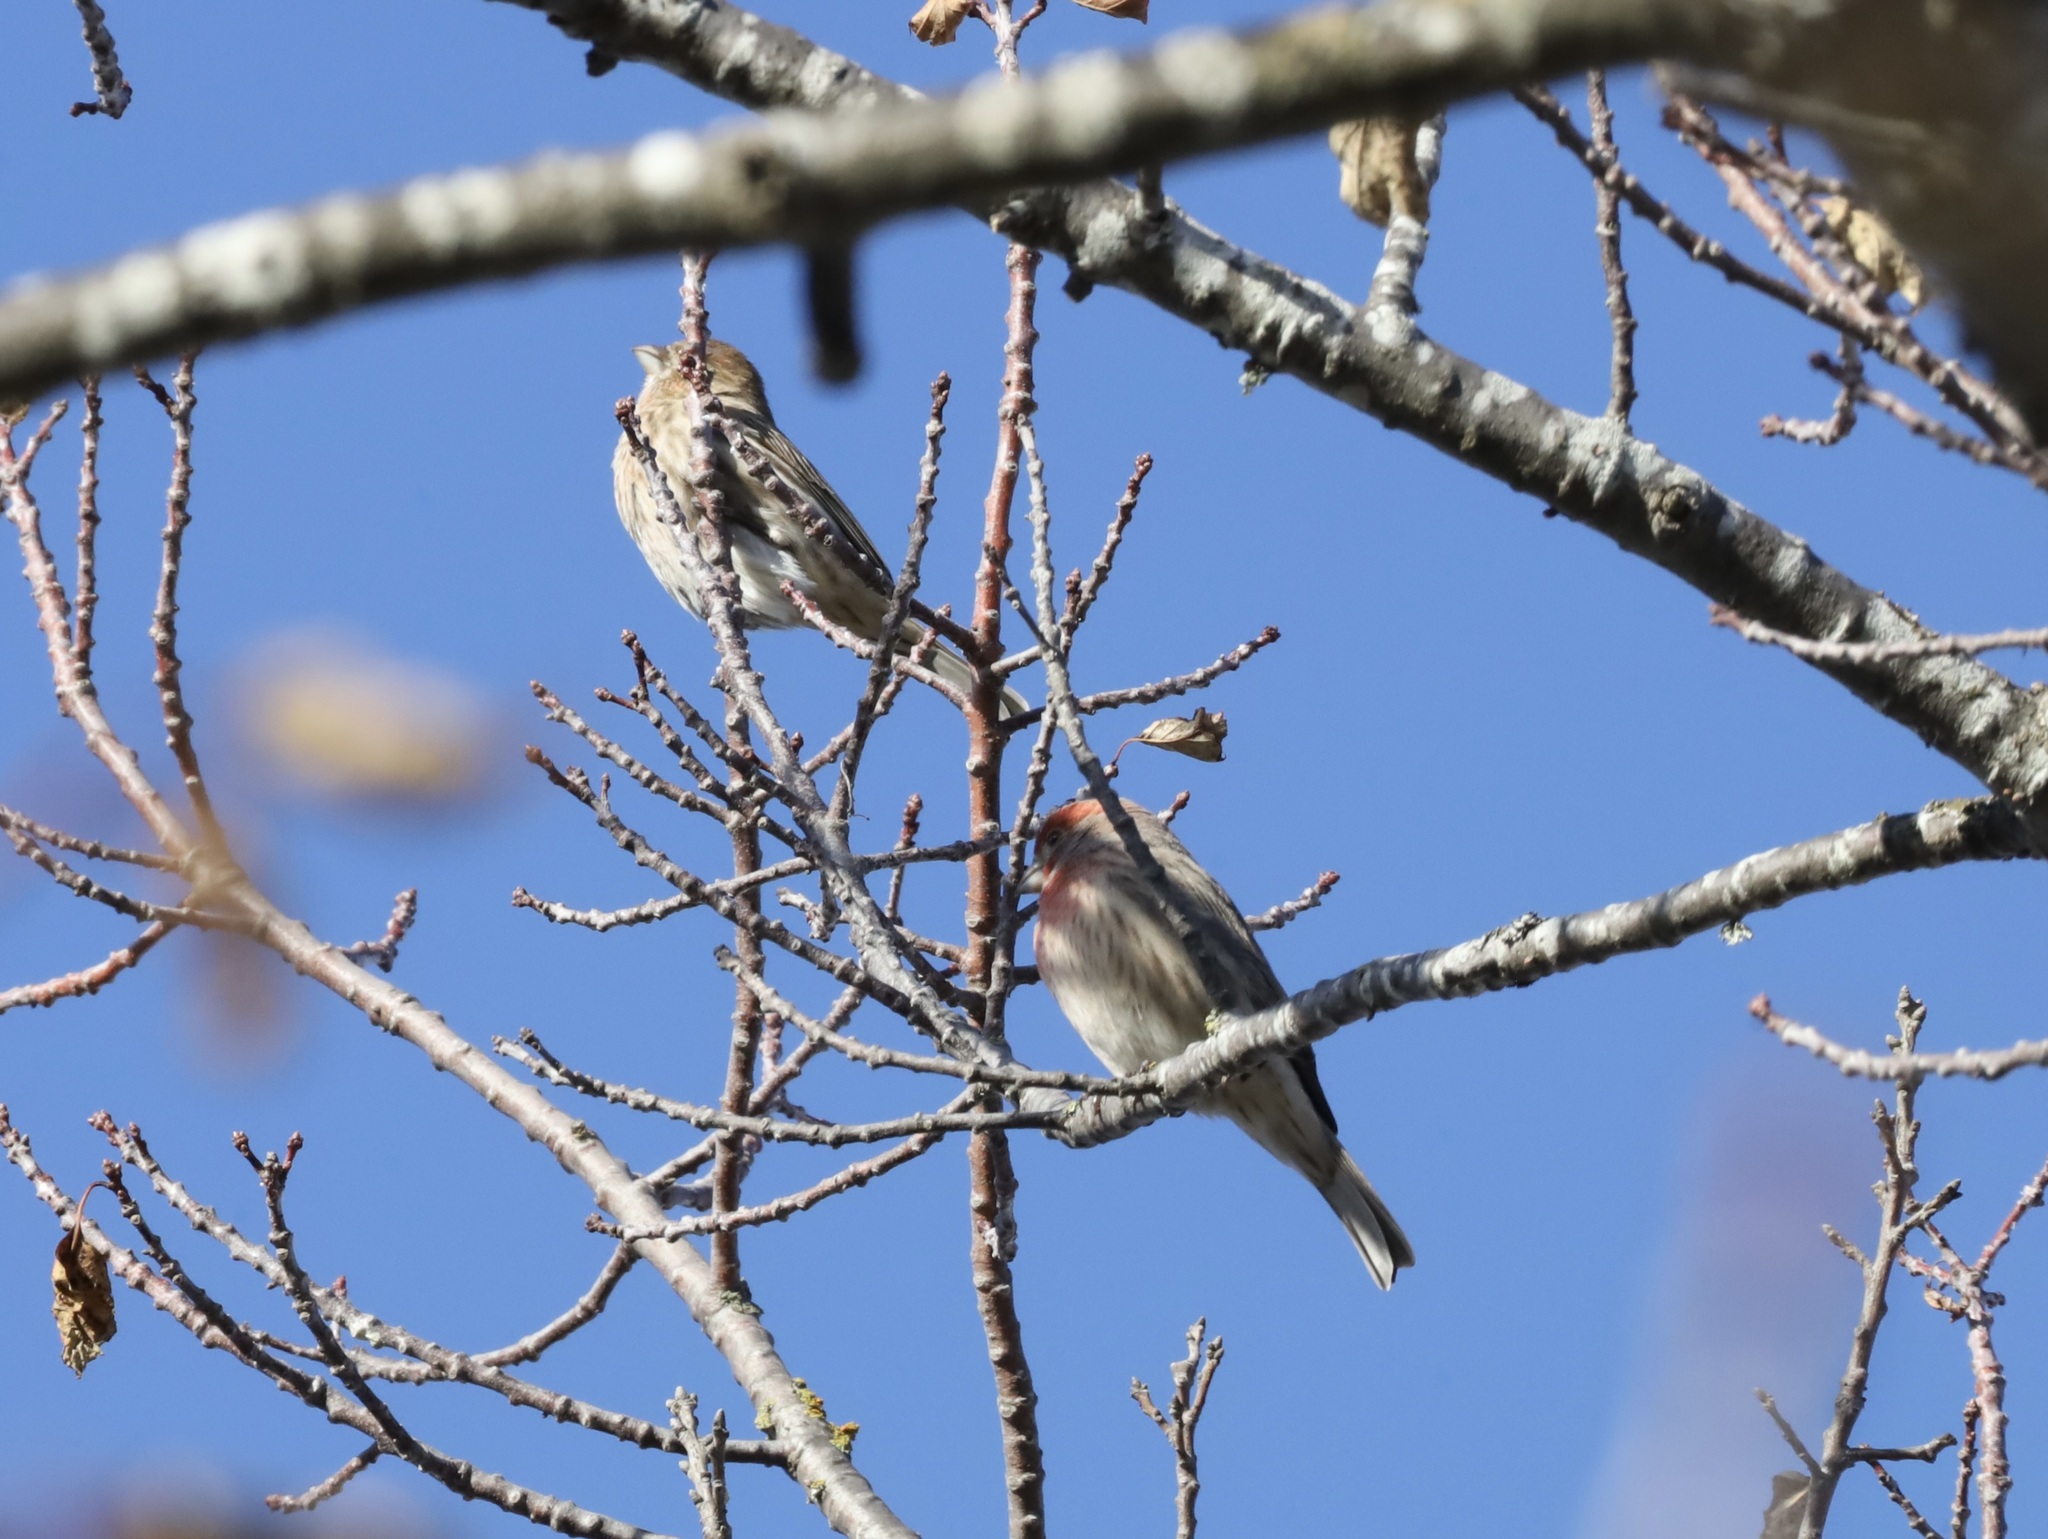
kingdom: Animalia
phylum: Chordata
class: Aves
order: Passeriformes
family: Fringillidae
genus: Haemorhous
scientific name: Haemorhous mexicanus
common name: House finch
